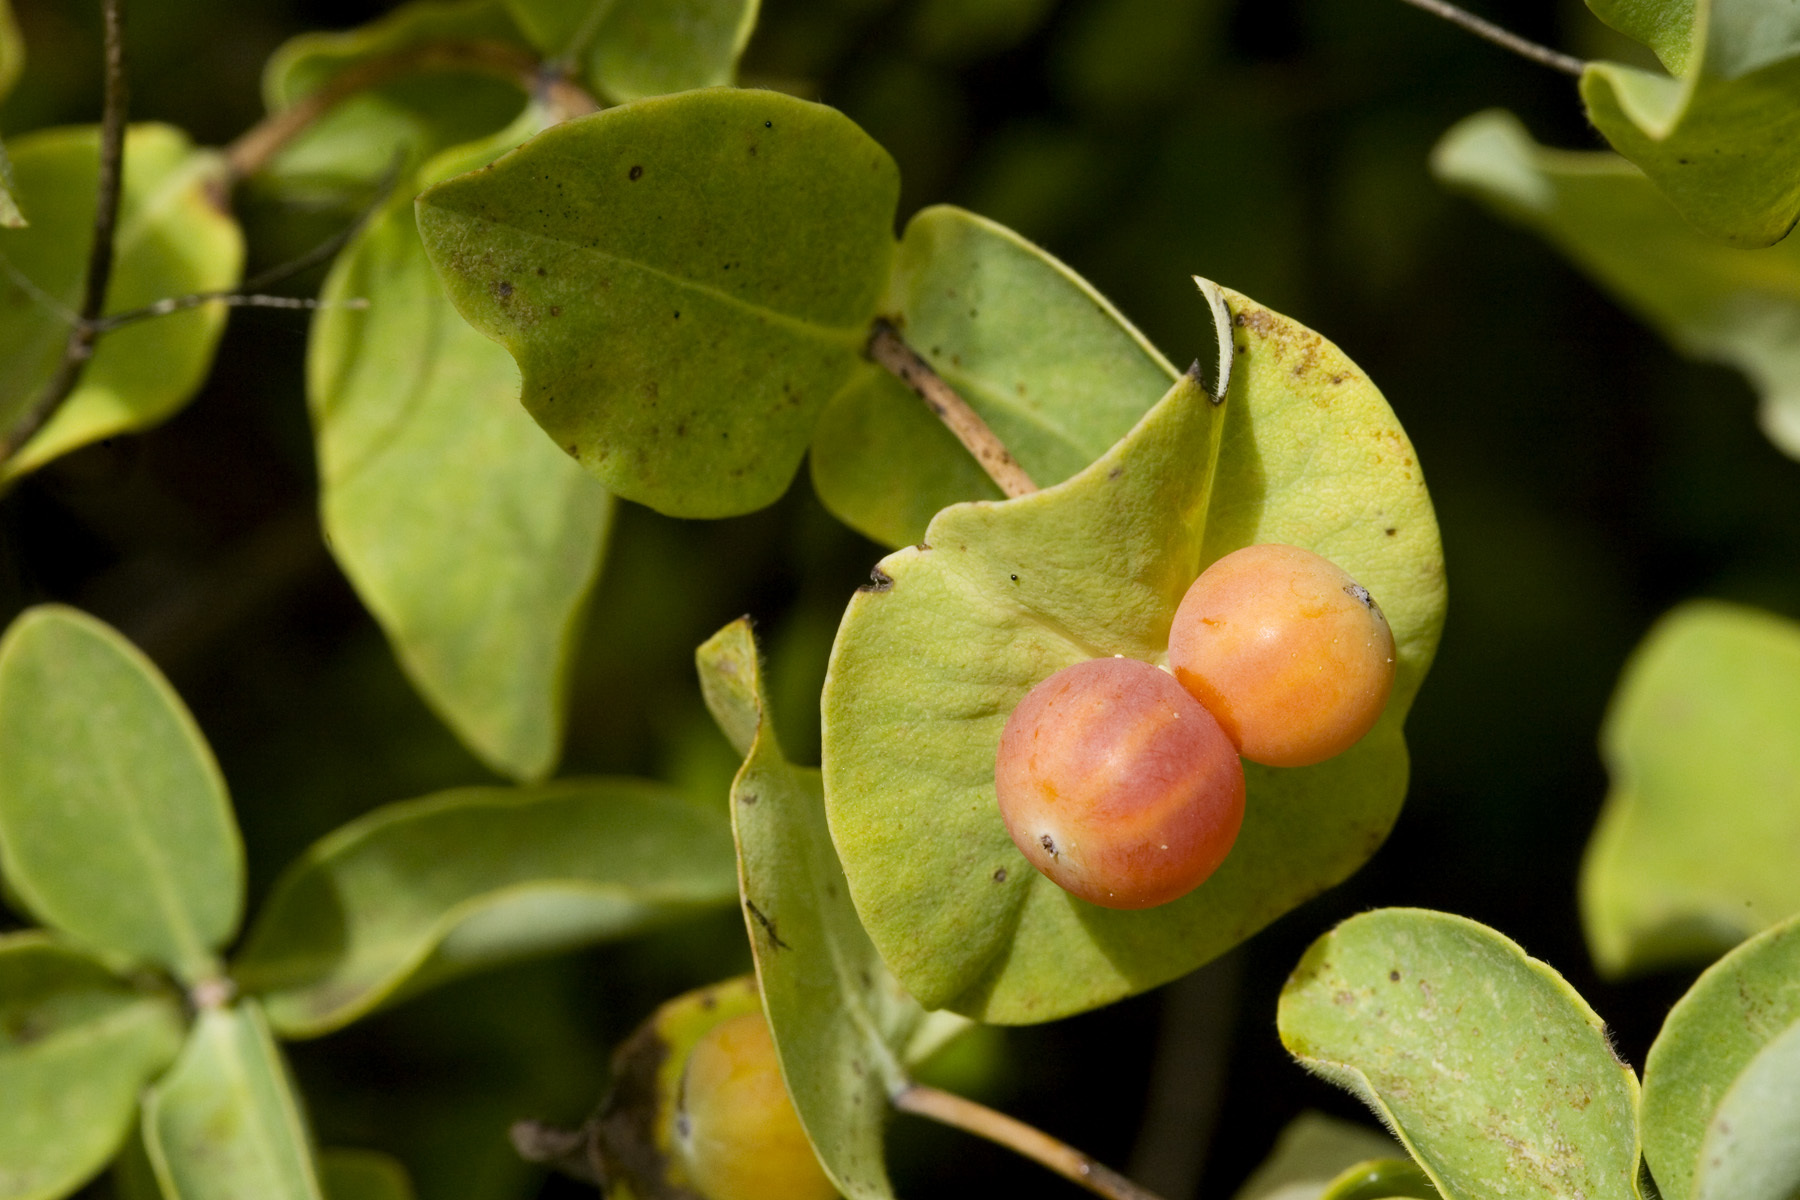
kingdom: Plantae
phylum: Tracheophyta
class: Magnoliopsida
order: Dipsacales
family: Caprifoliaceae
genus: Lonicera
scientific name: Lonicera albiflora
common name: White honeysuckle
